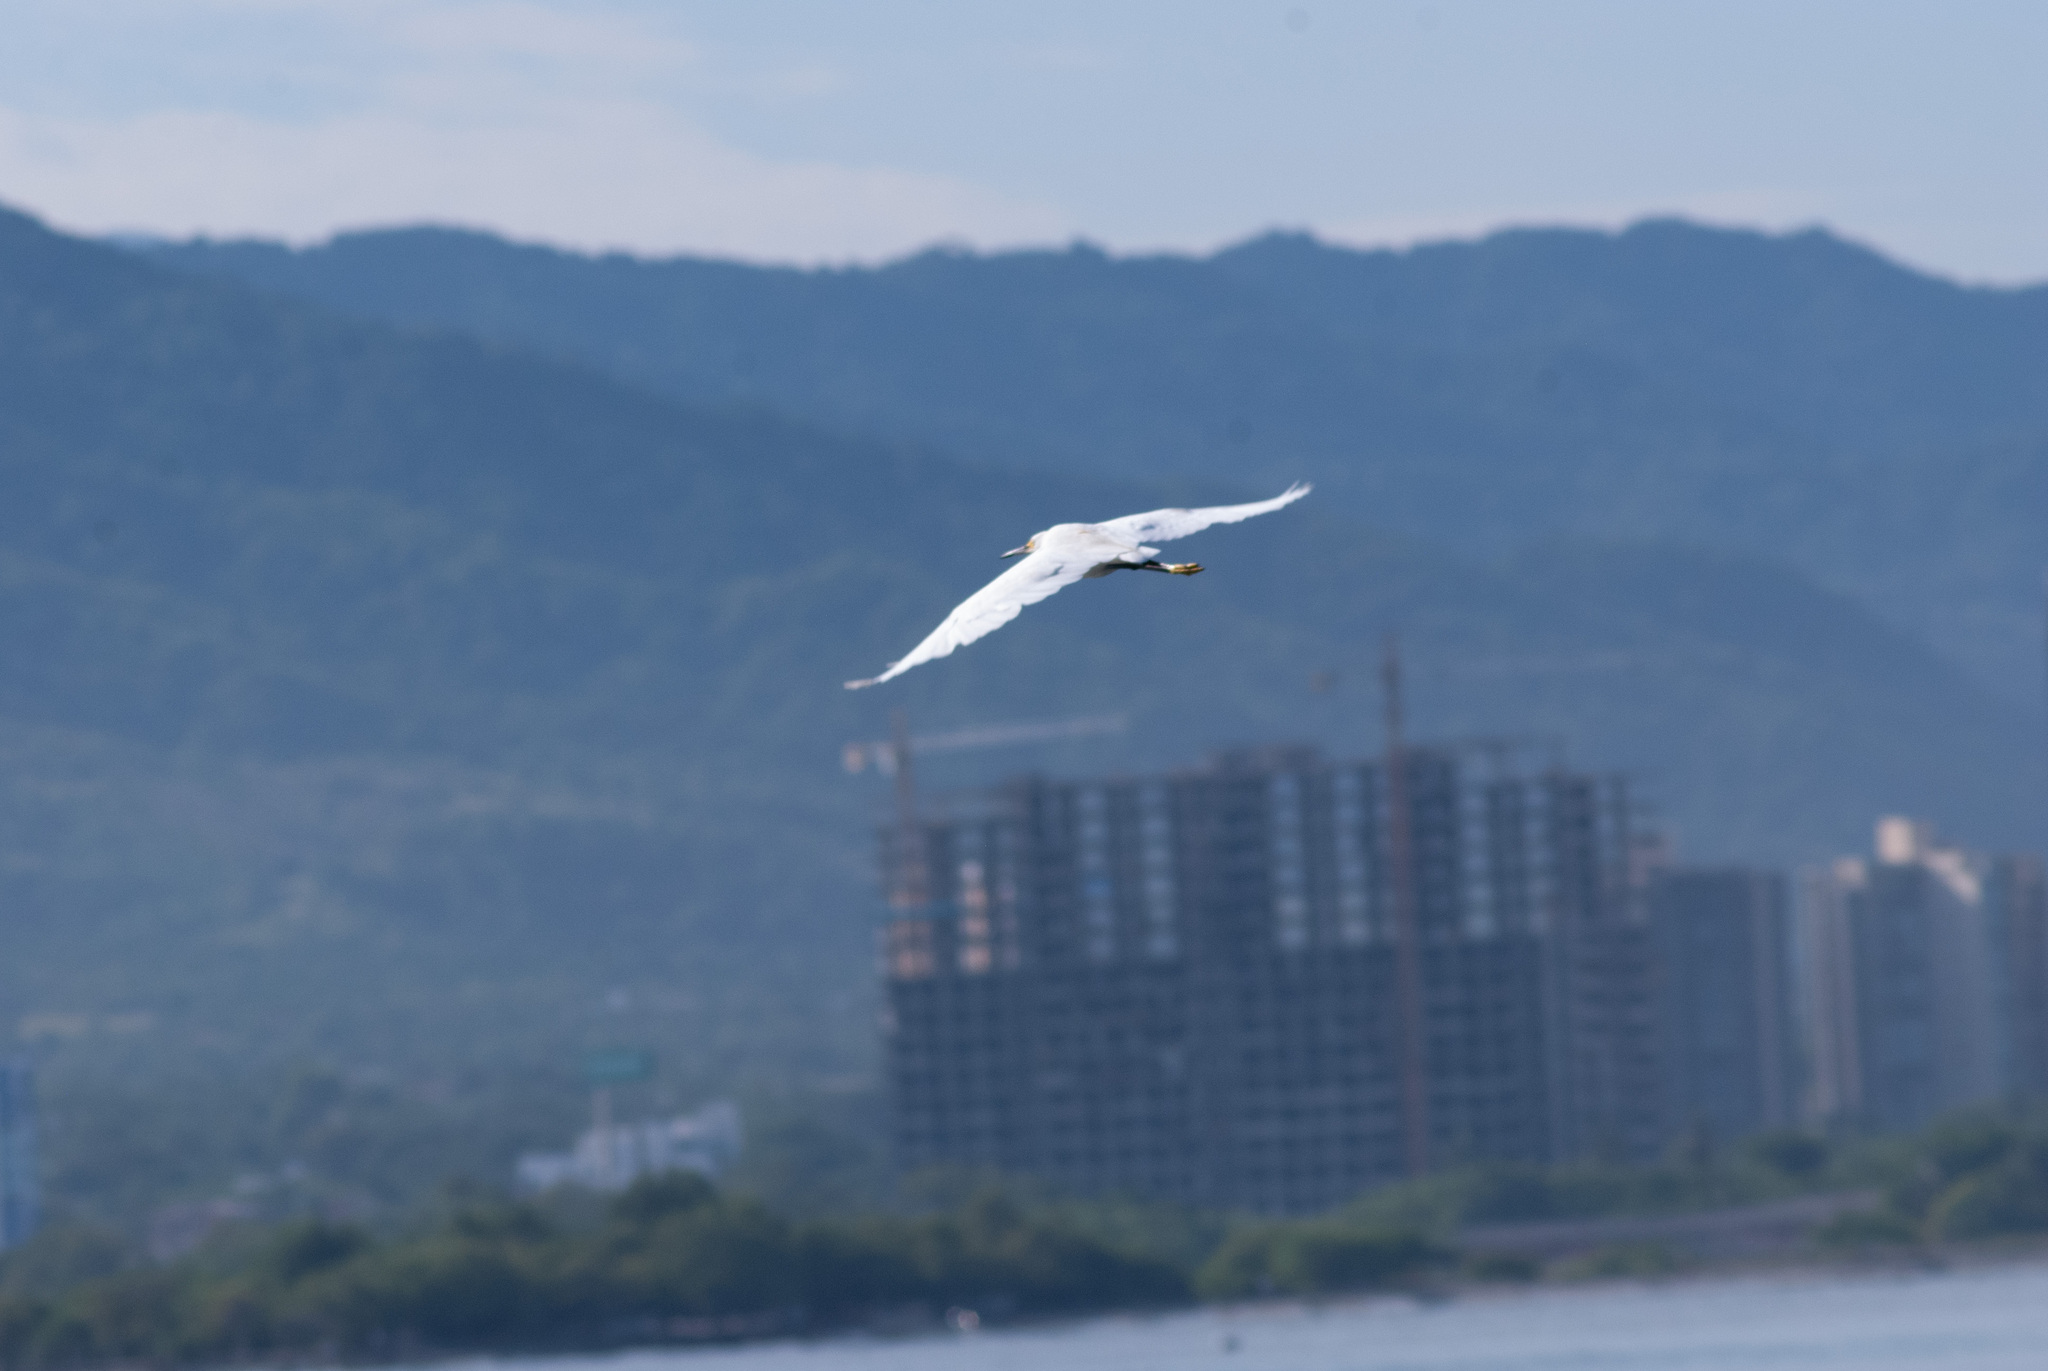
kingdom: Animalia
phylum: Chordata
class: Aves
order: Pelecaniformes
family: Ardeidae
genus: Egretta
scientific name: Egretta thula
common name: Snowy egret
